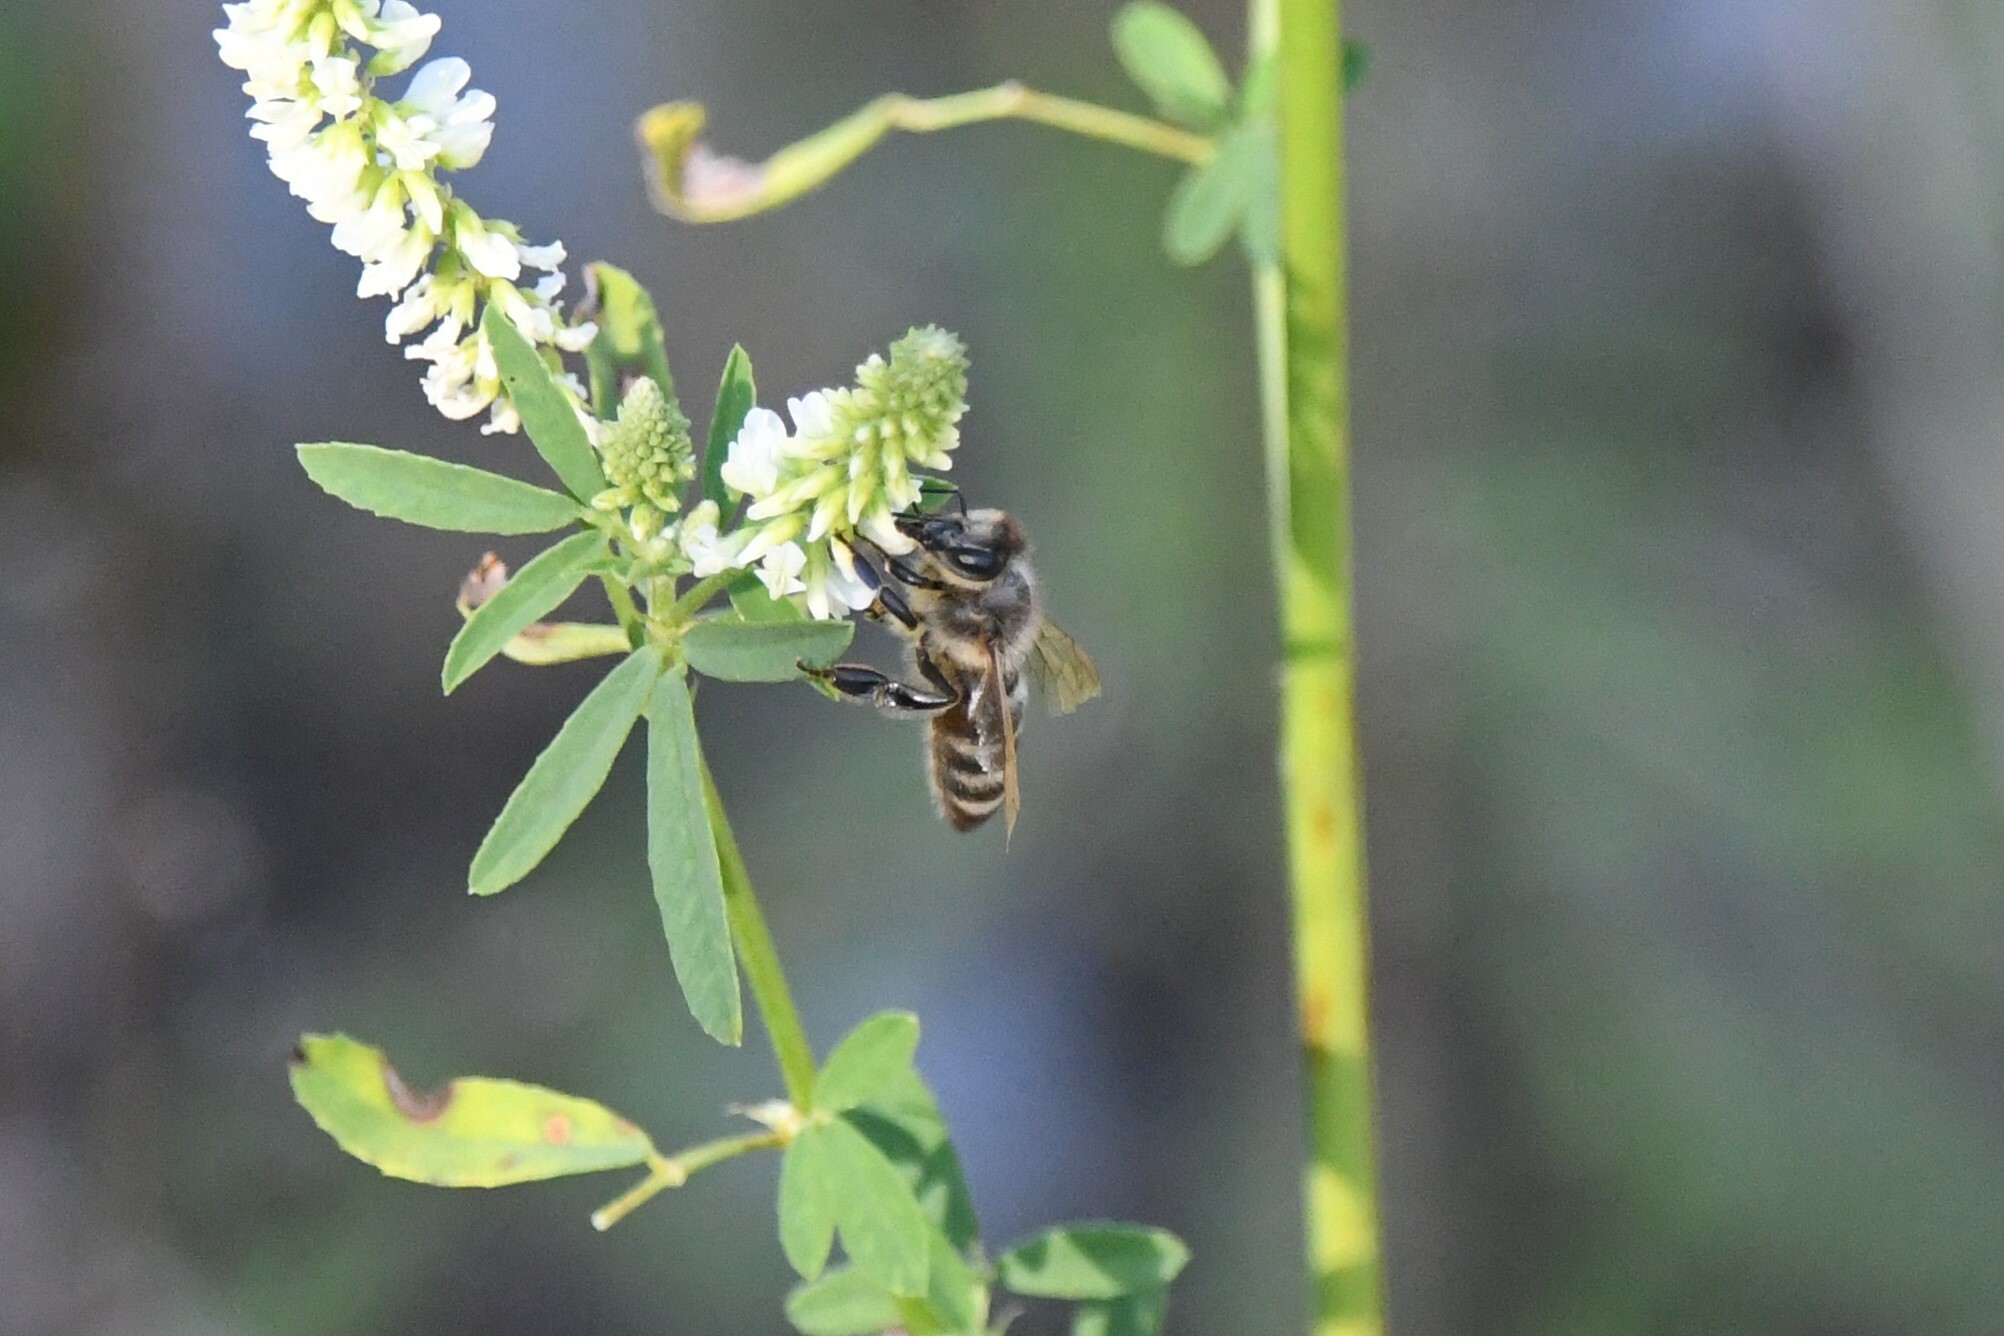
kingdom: Animalia
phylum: Arthropoda
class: Insecta
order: Hymenoptera
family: Apidae
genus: Apis
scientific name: Apis mellifera
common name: Honey bee
